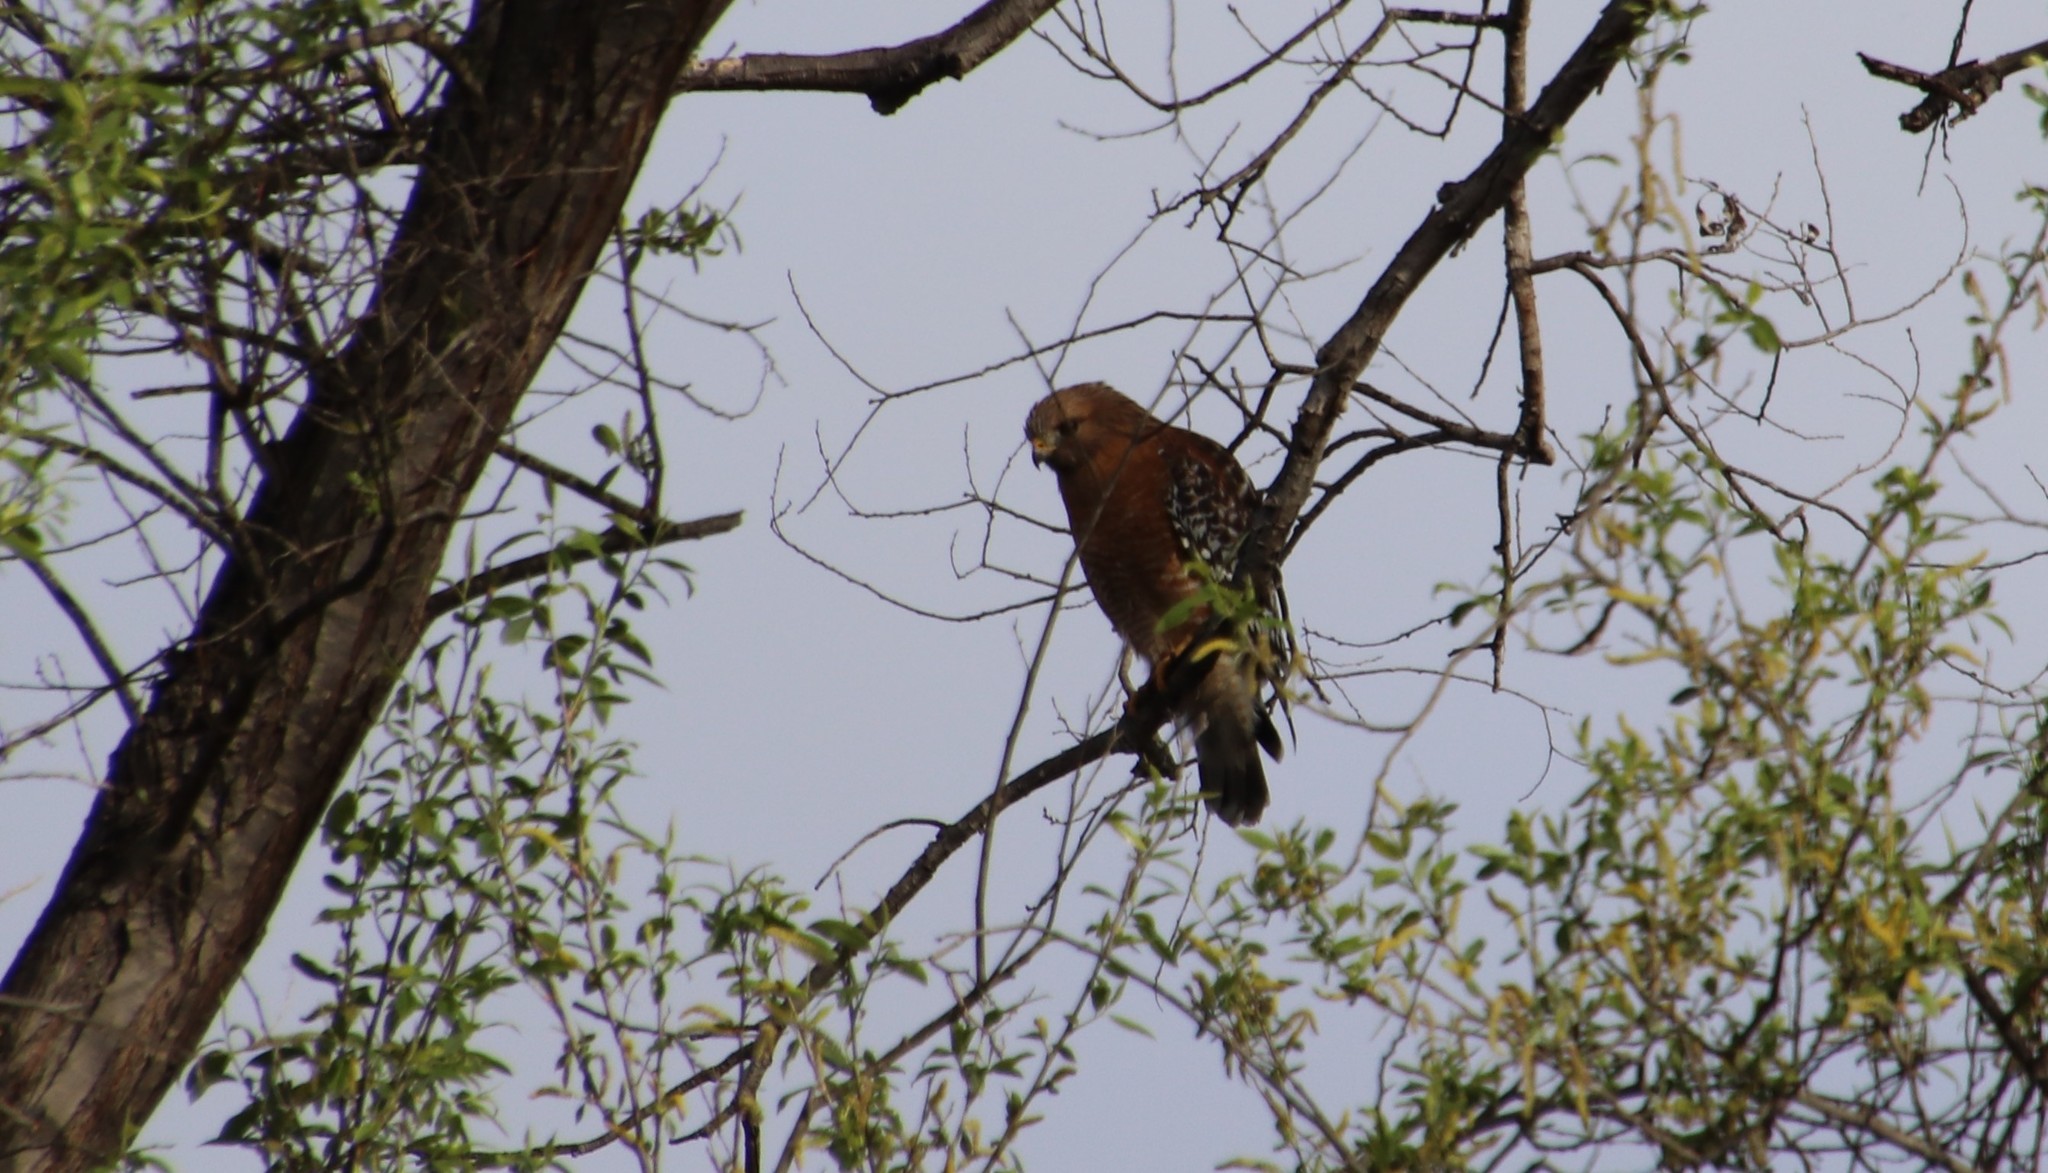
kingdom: Animalia
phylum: Chordata
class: Aves
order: Accipitriformes
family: Accipitridae
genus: Buteo
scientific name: Buteo lineatus
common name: Red-shouldered hawk
